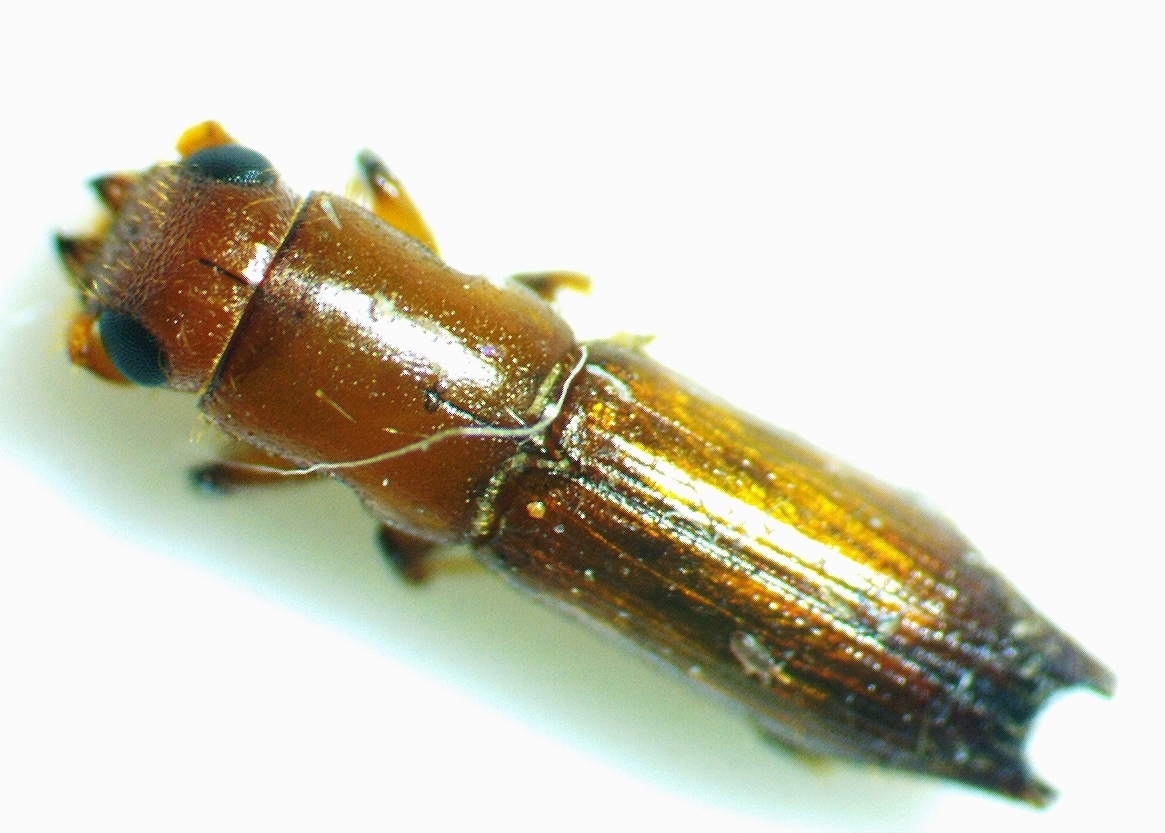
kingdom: Animalia
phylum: Arthropoda
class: Insecta
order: Coleoptera
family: Curculionidae
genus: Euplatypus
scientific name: Euplatypus compositus
